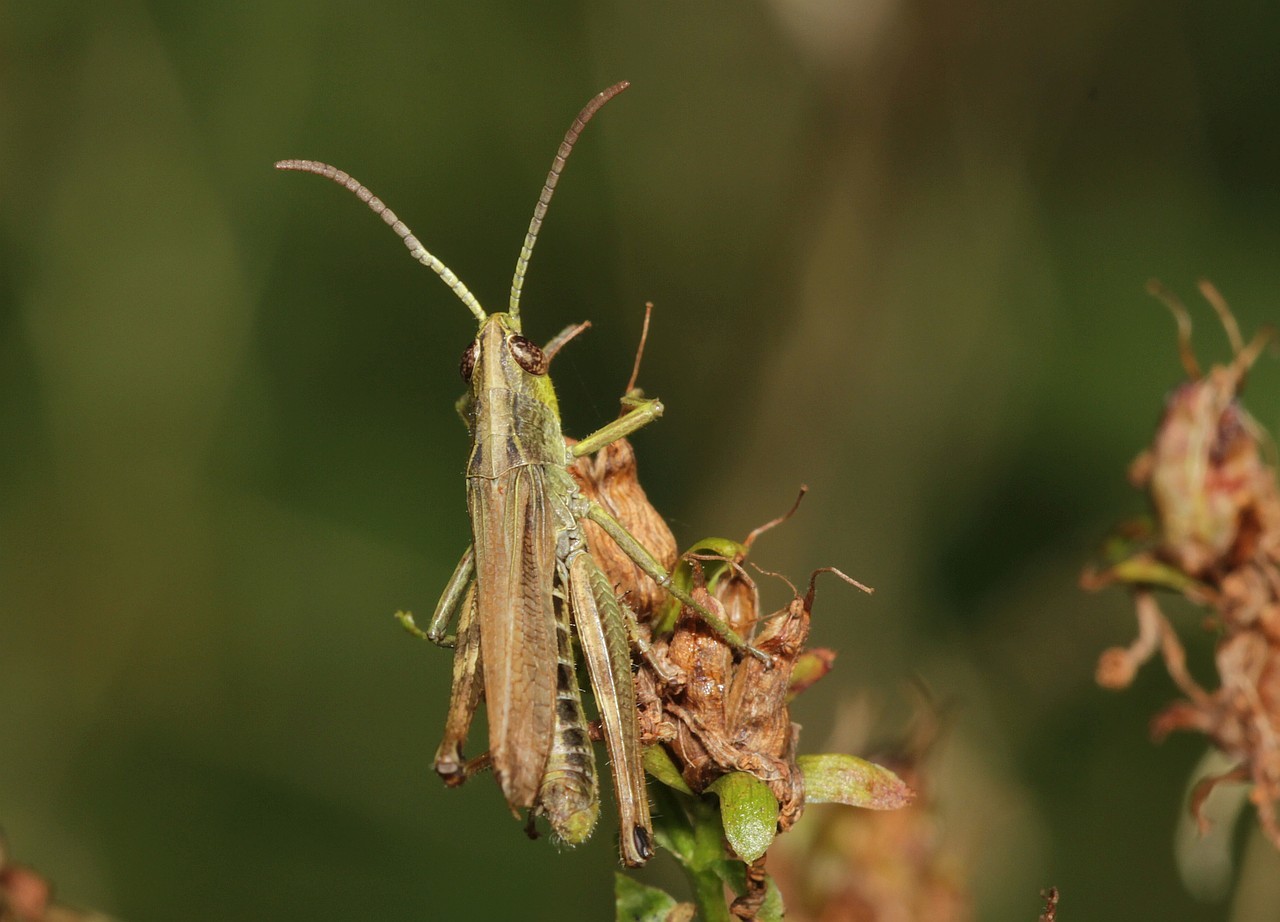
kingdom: Animalia
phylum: Arthropoda
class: Insecta
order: Orthoptera
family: Acrididae
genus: Pseudochorthippus
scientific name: Pseudochorthippus parallelus
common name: Meadow grasshopper
